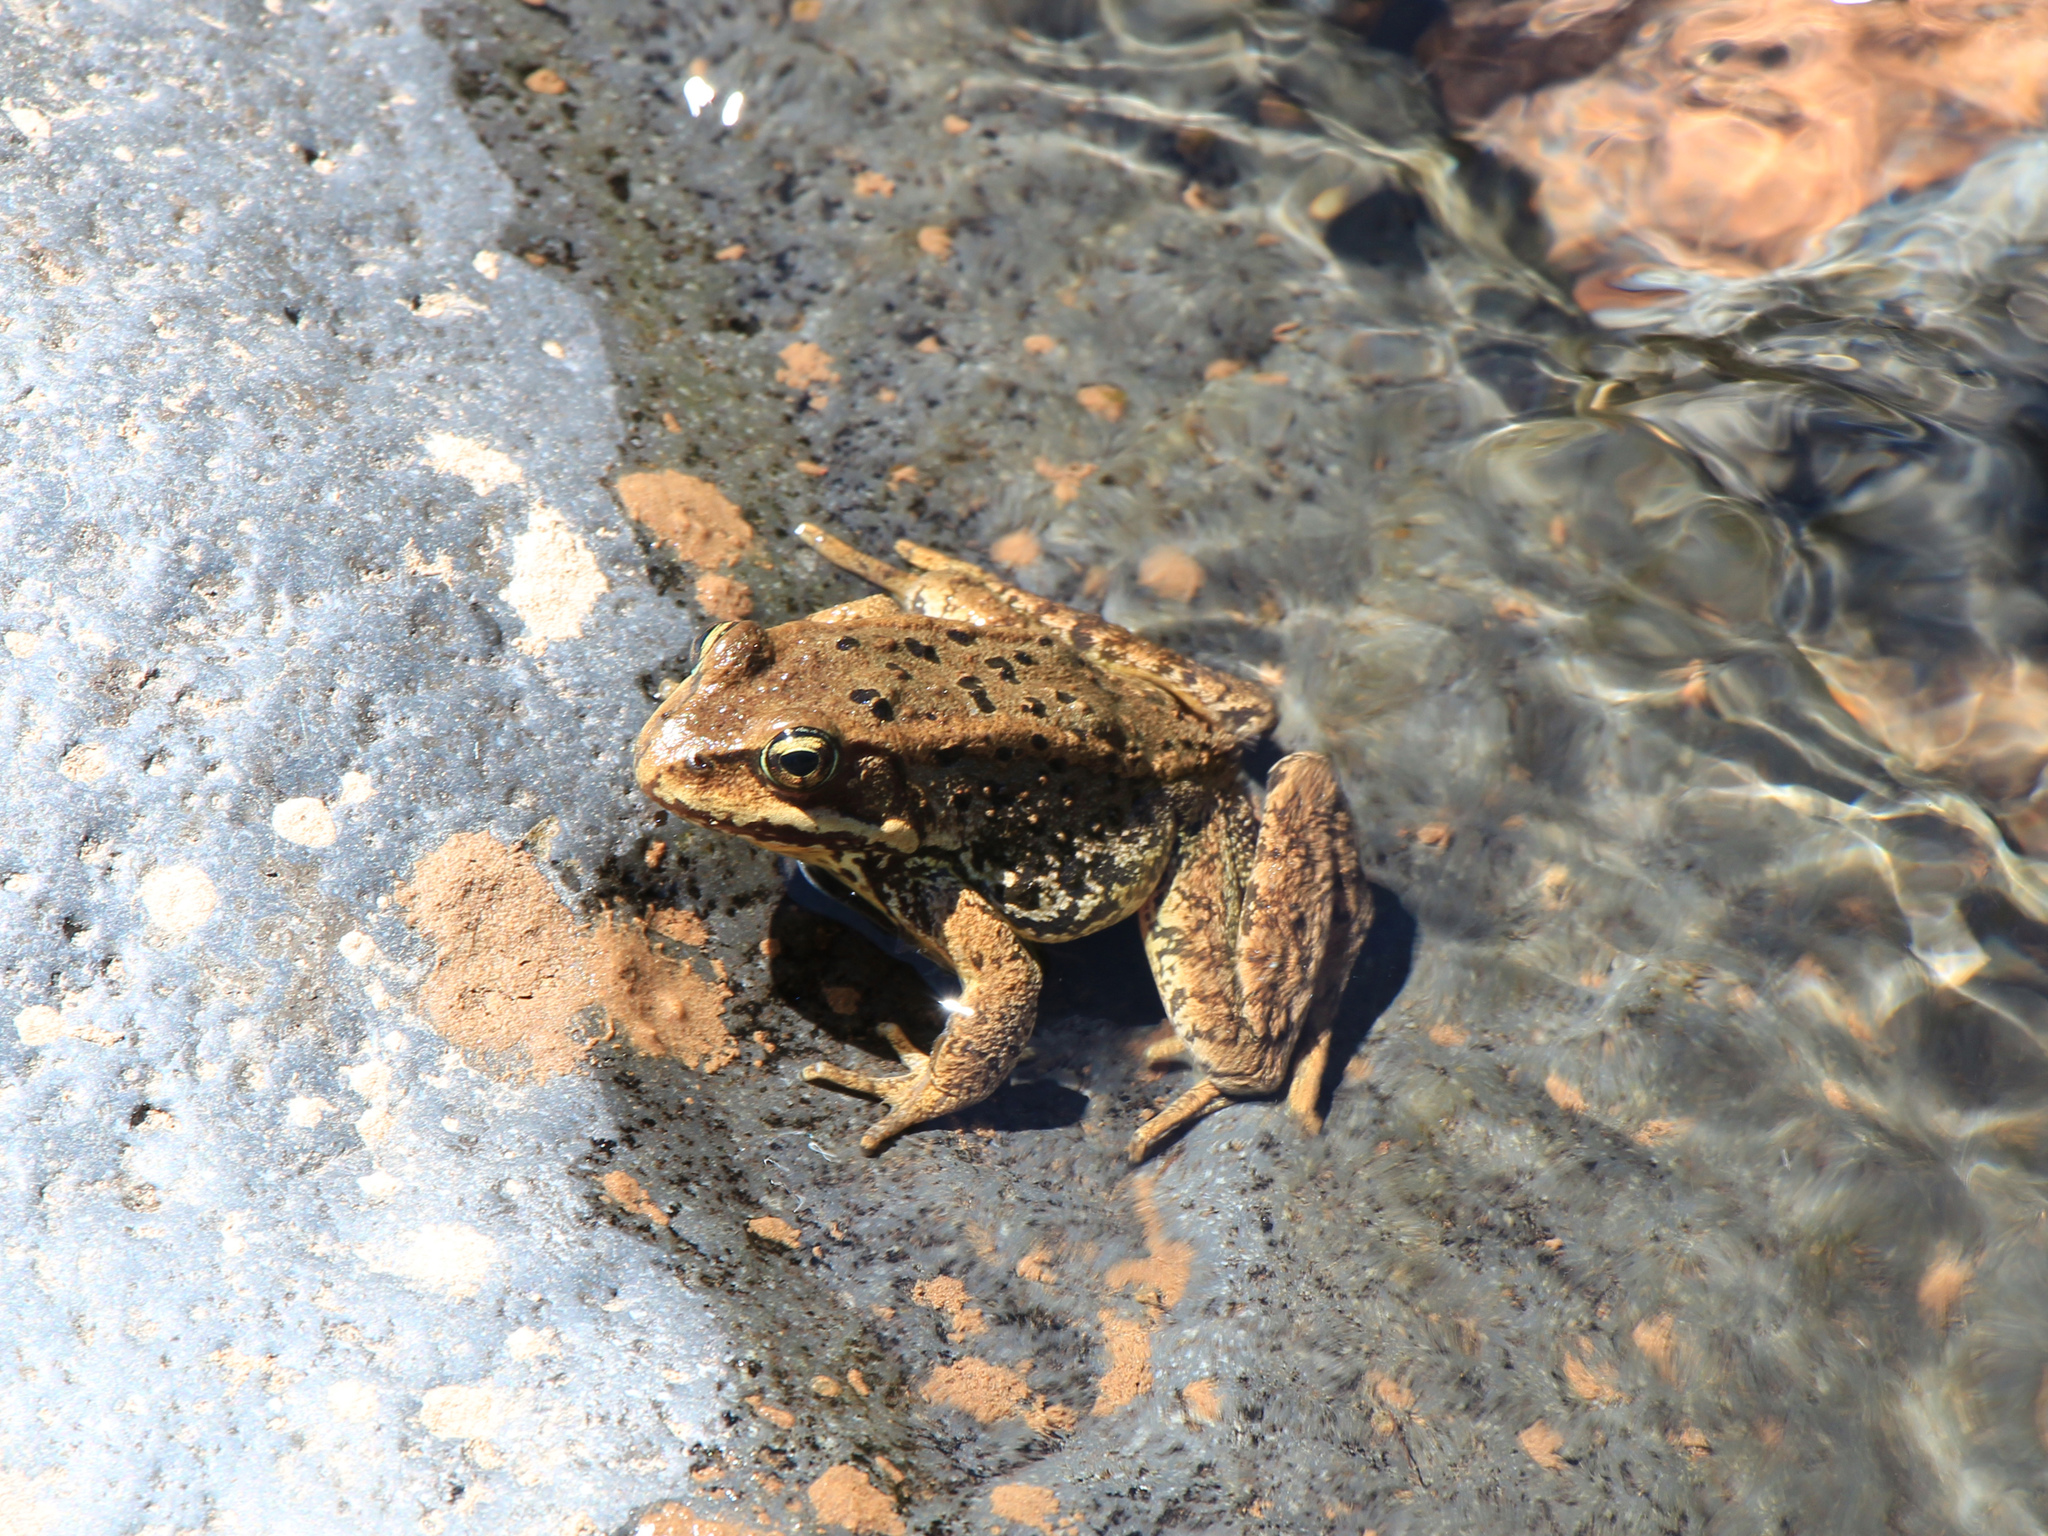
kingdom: Animalia
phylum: Chordata
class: Amphibia
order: Anura
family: Ranidae
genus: Rana
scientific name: Rana cascadae
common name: Cascades frog
